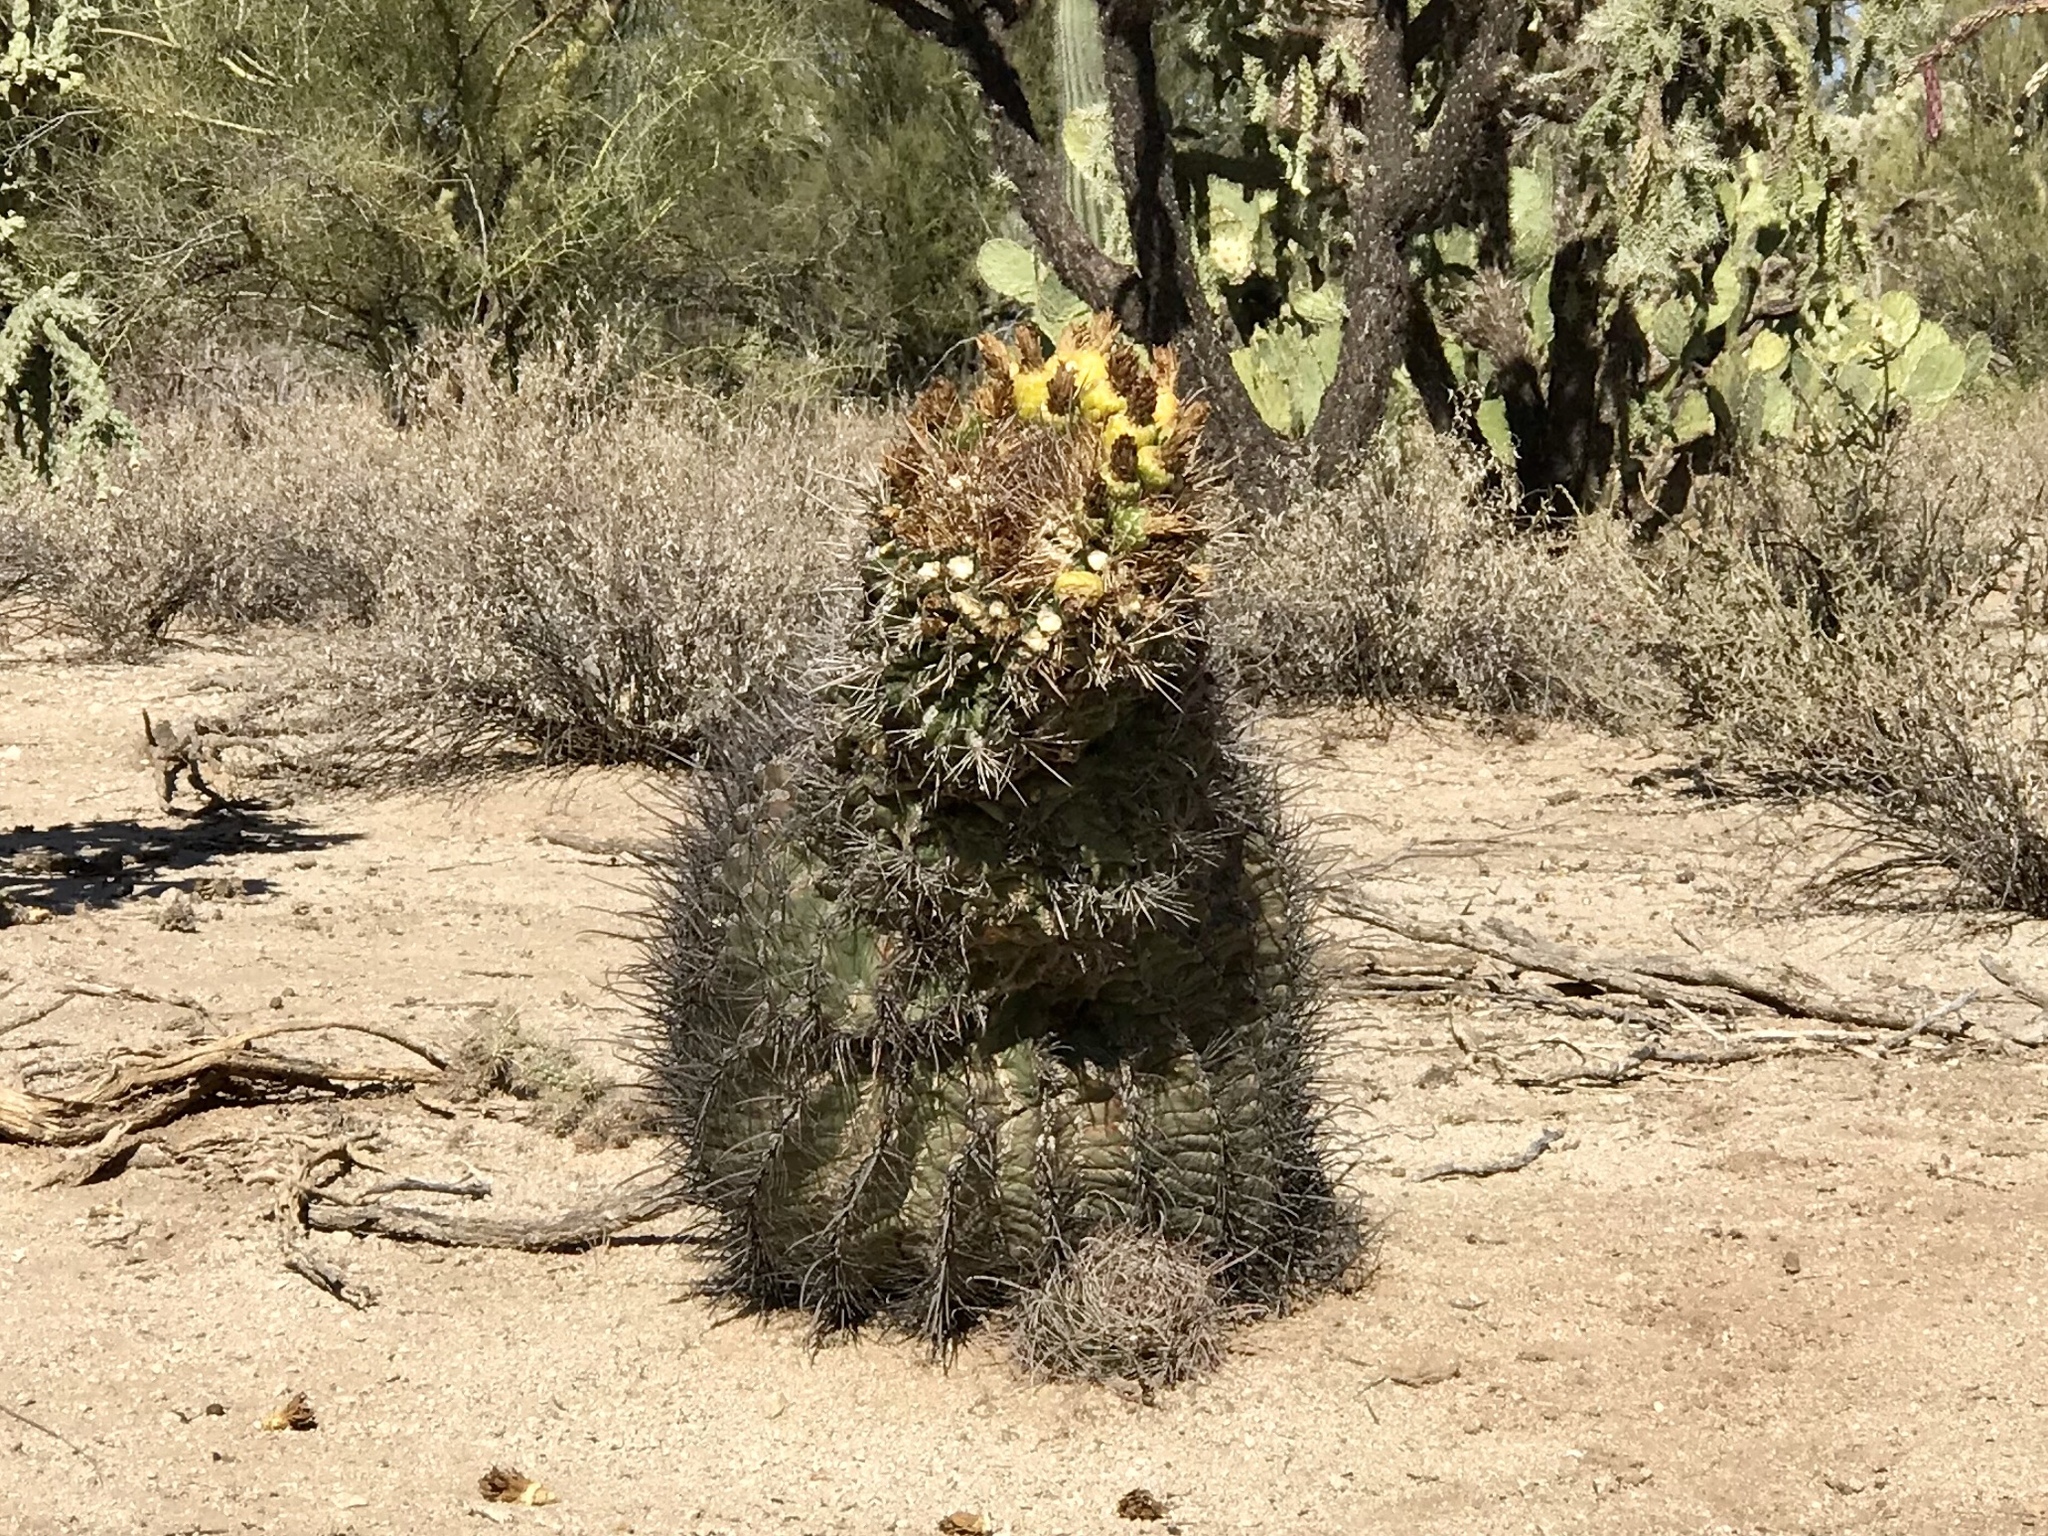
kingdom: Plantae
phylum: Tracheophyta
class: Magnoliopsida
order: Caryophyllales
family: Cactaceae
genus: Ferocactus
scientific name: Ferocactus wislizeni
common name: Candy barrel cactus
